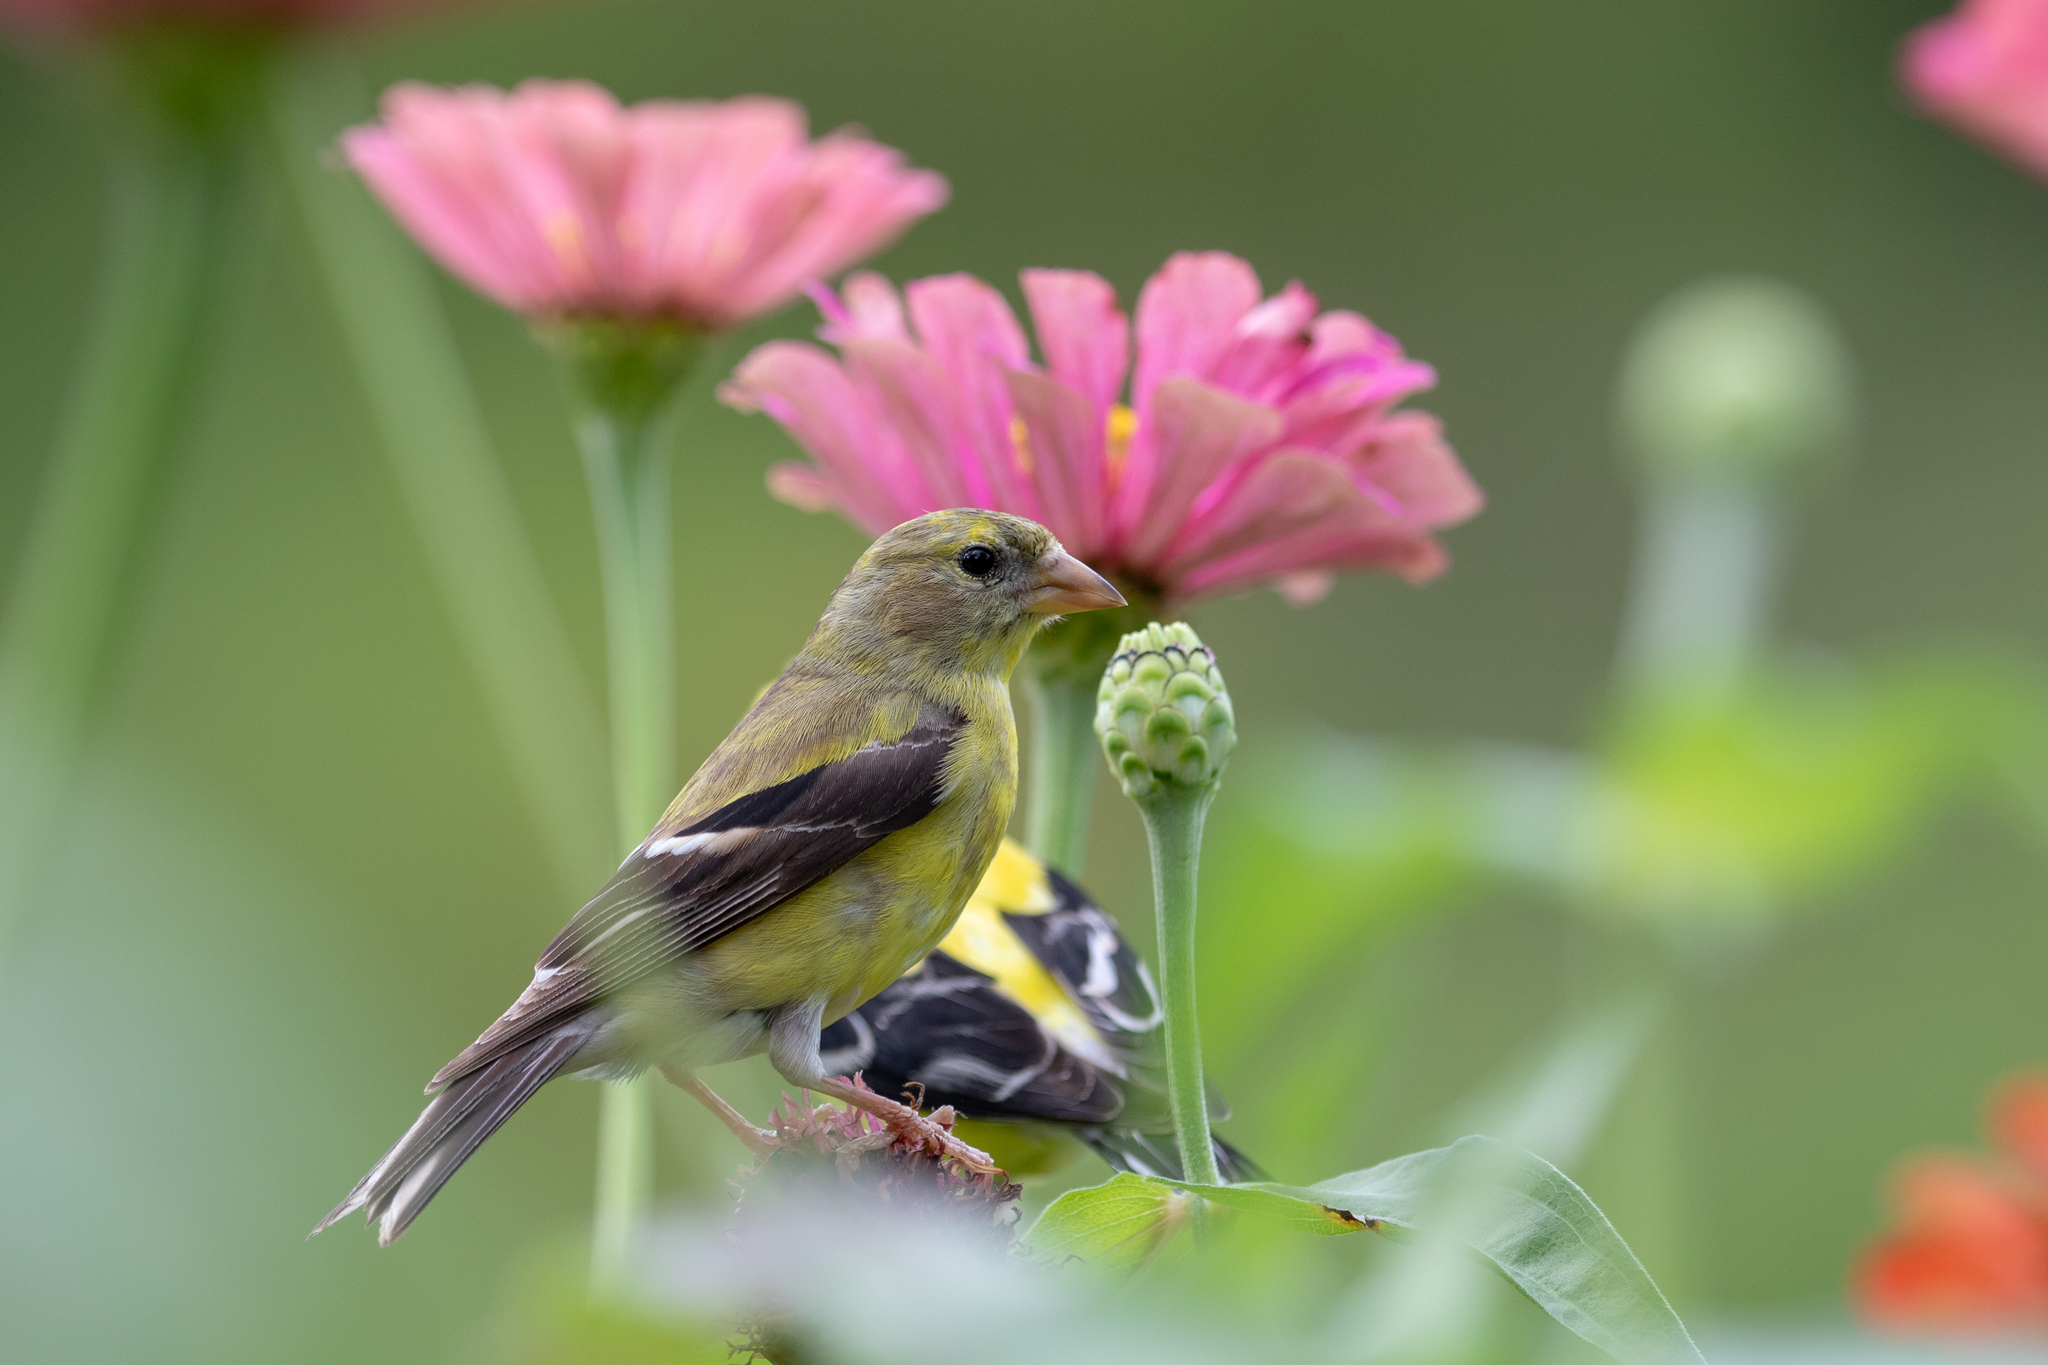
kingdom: Animalia
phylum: Chordata
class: Aves
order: Passeriformes
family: Fringillidae
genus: Spinus
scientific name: Spinus tristis
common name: American goldfinch
